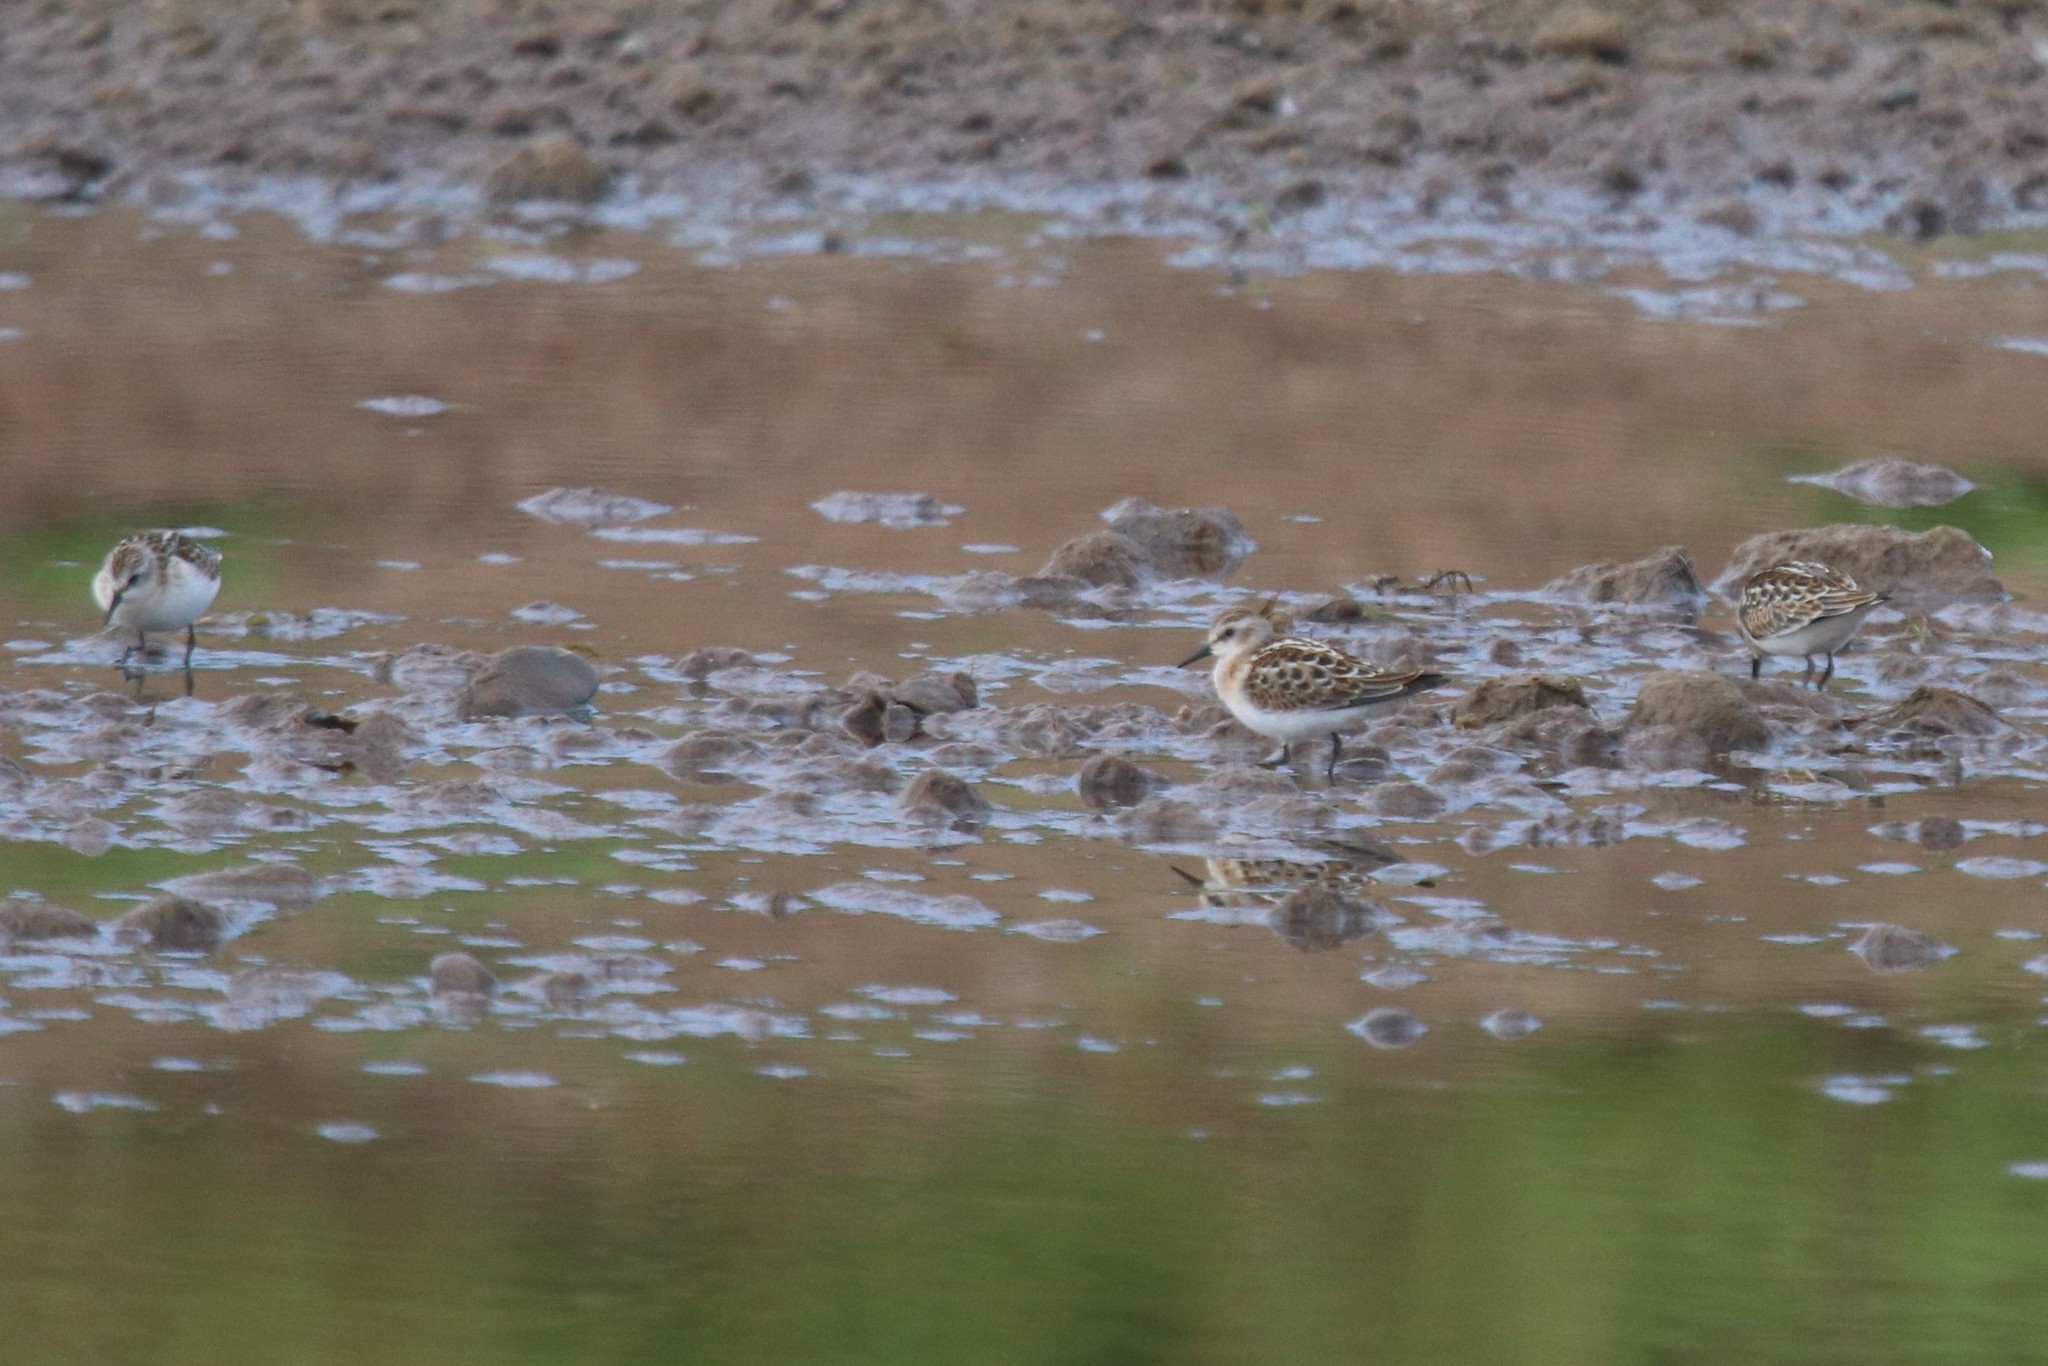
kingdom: Animalia
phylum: Chordata
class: Aves
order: Charadriiformes
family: Scolopacidae
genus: Calidris
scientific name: Calidris minuta
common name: Little stint
